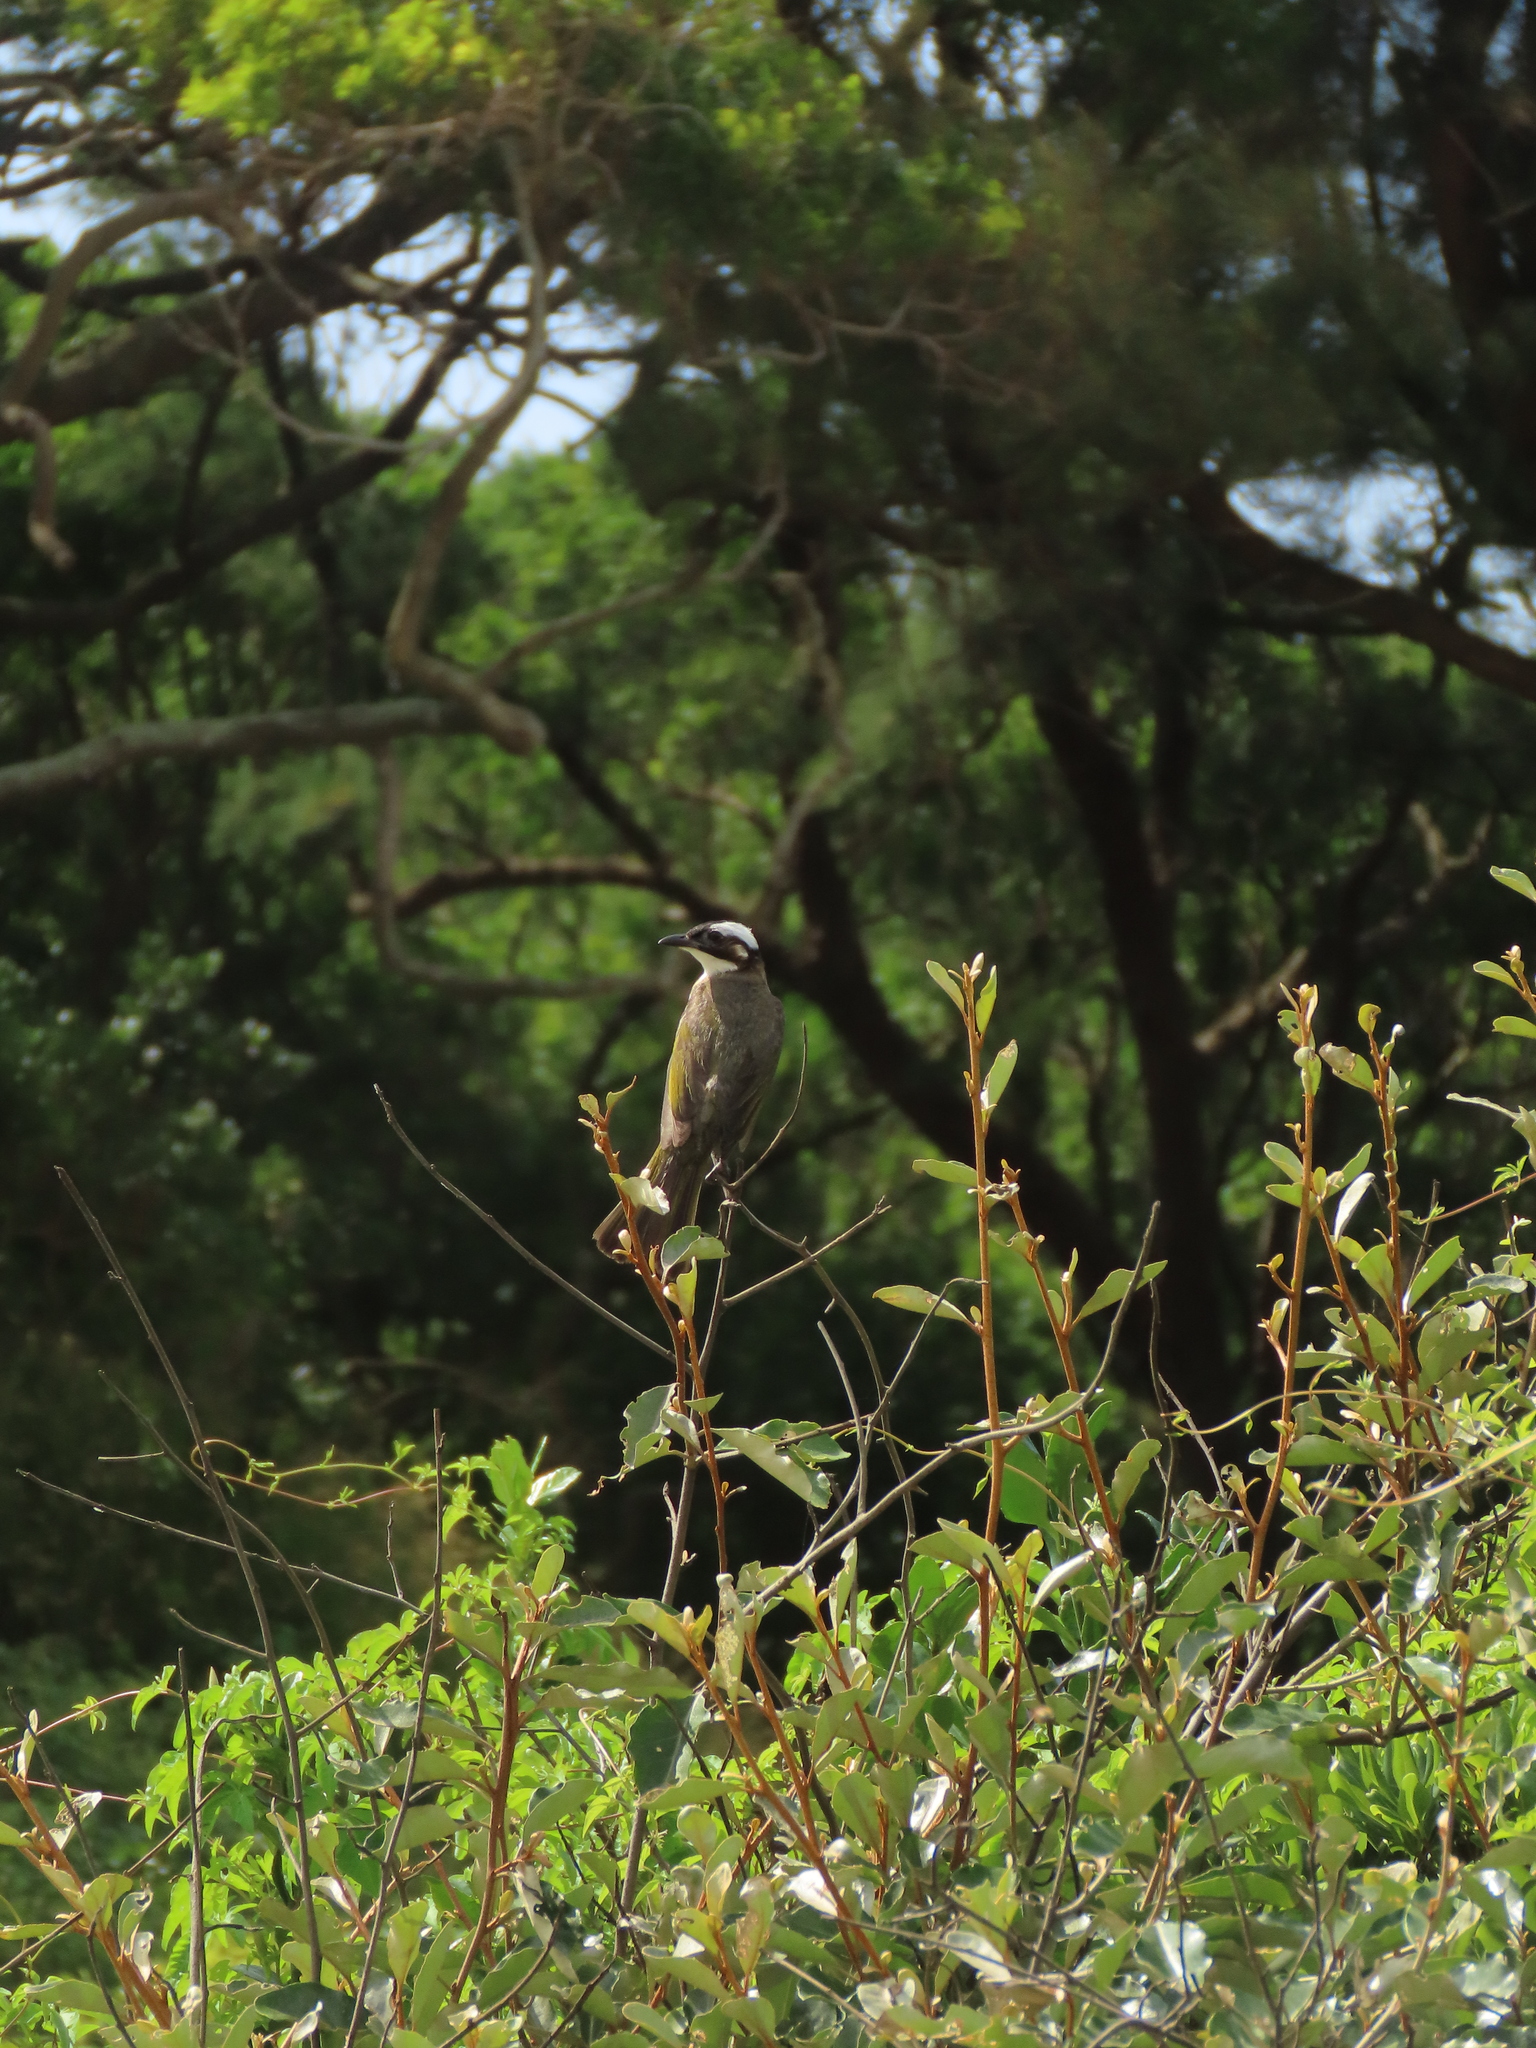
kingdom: Animalia
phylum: Chordata
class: Aves
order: Passeriformes
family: Pycnonotidae
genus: Pycnonotus
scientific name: Pycnonotus sinensis
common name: Light-vented bulbul
